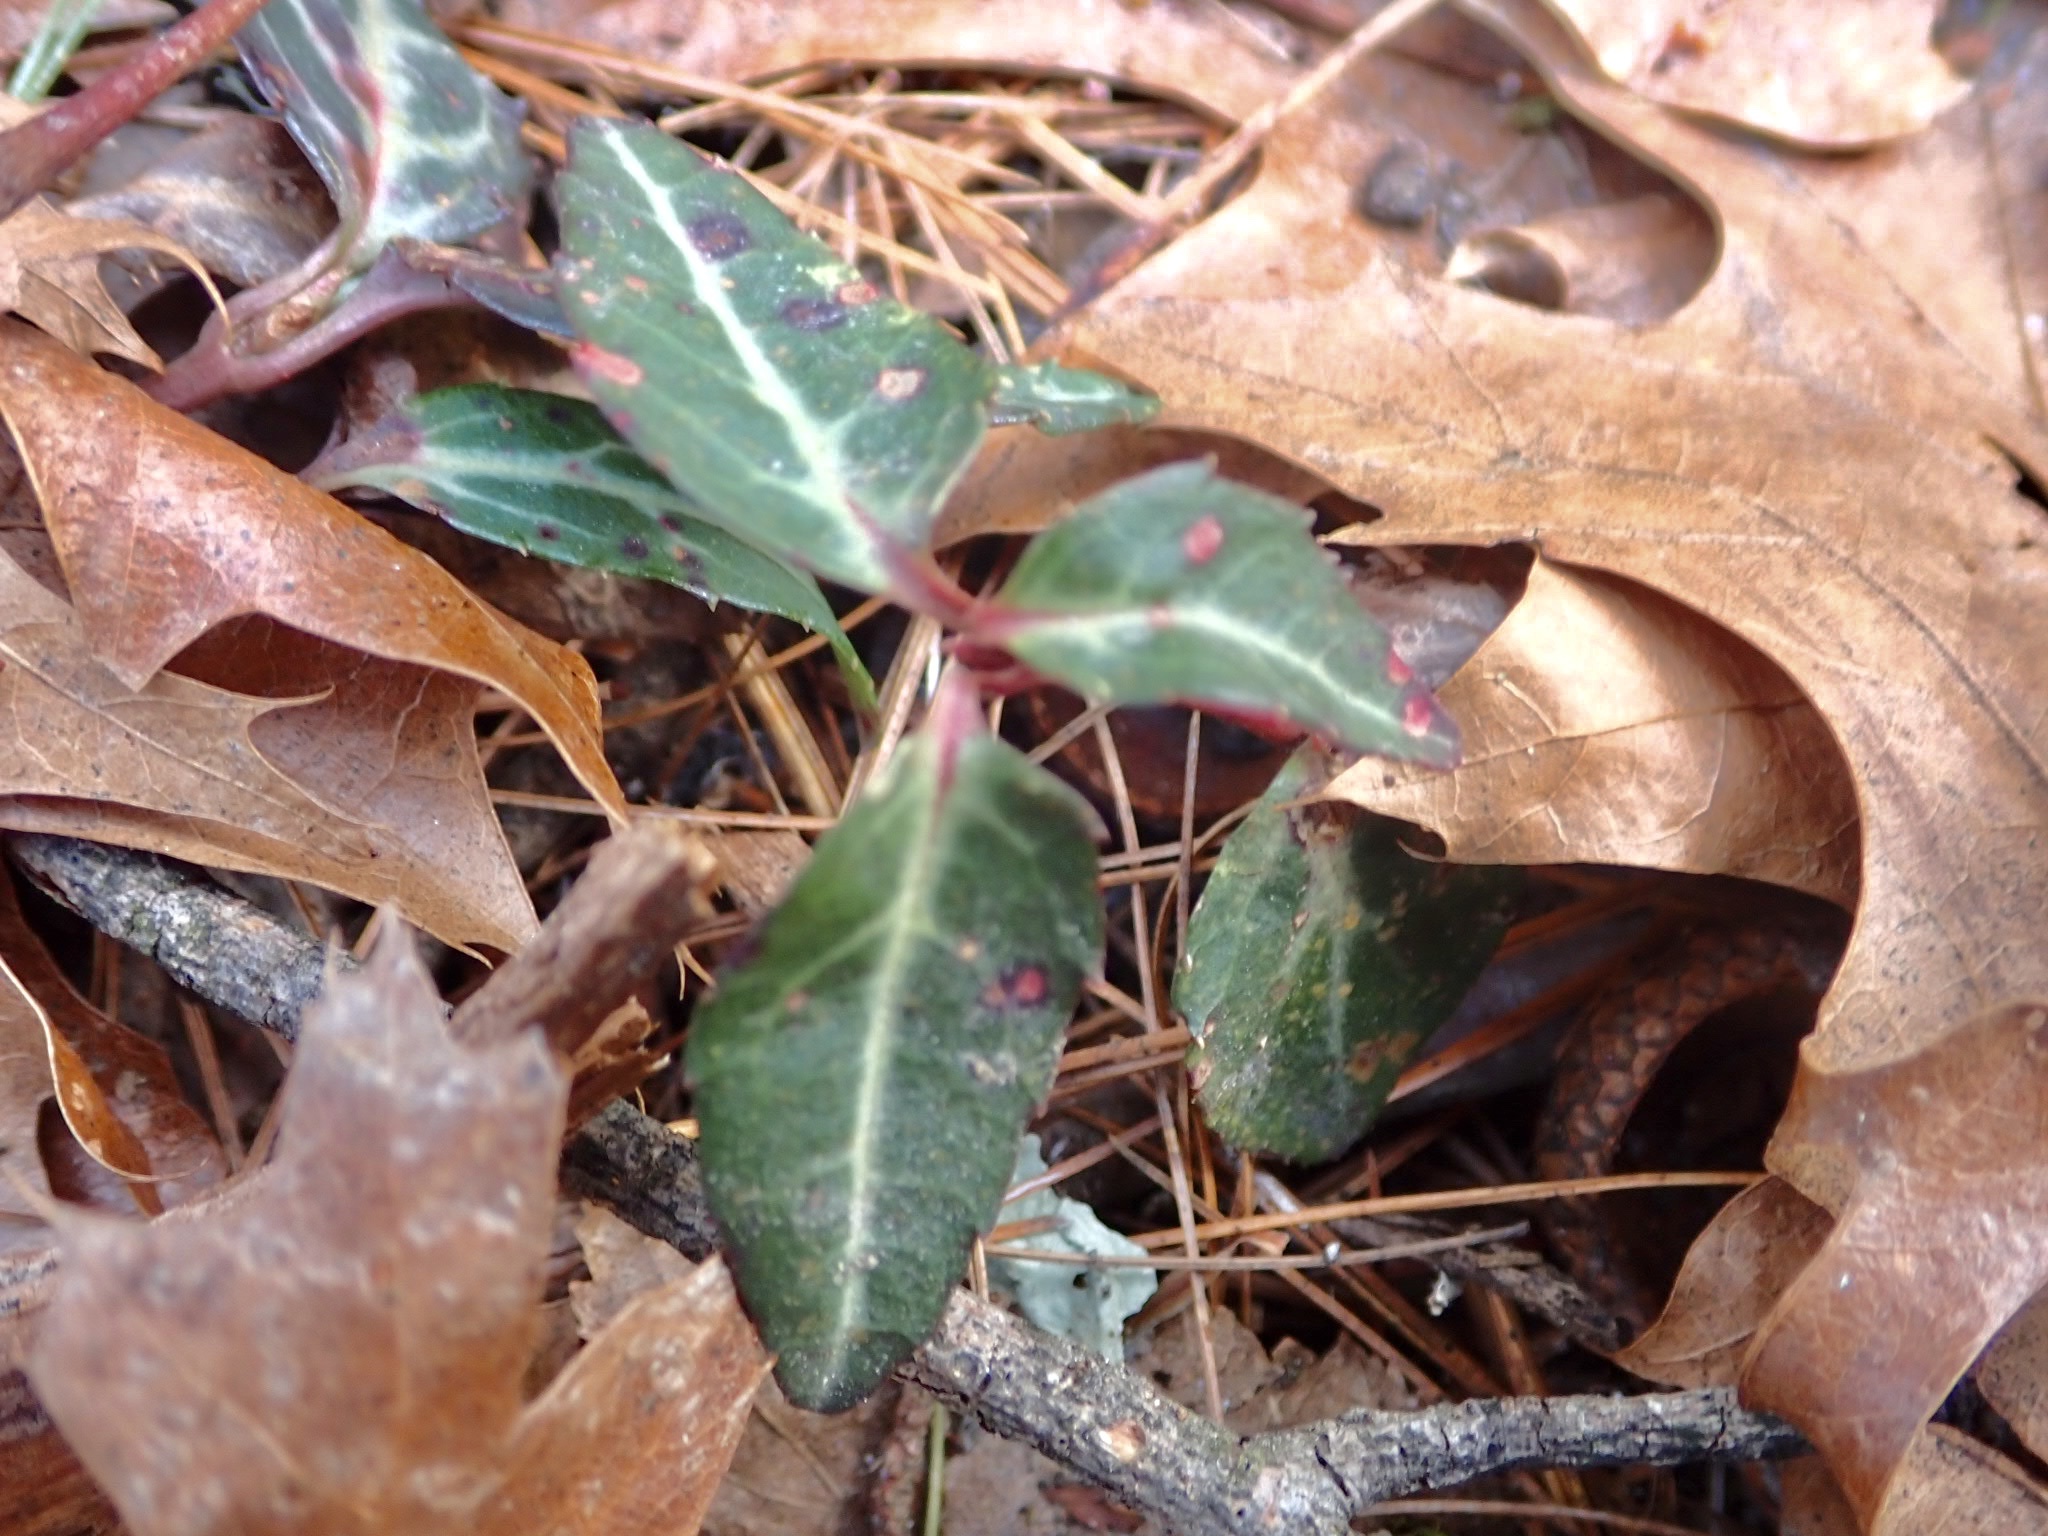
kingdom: Plantae
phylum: Tracheophyta
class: Magnoliopsida
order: Ericales
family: Ericaceae
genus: Chimaphila
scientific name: Chimaphila maculata
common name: Spotted pipsissewa
